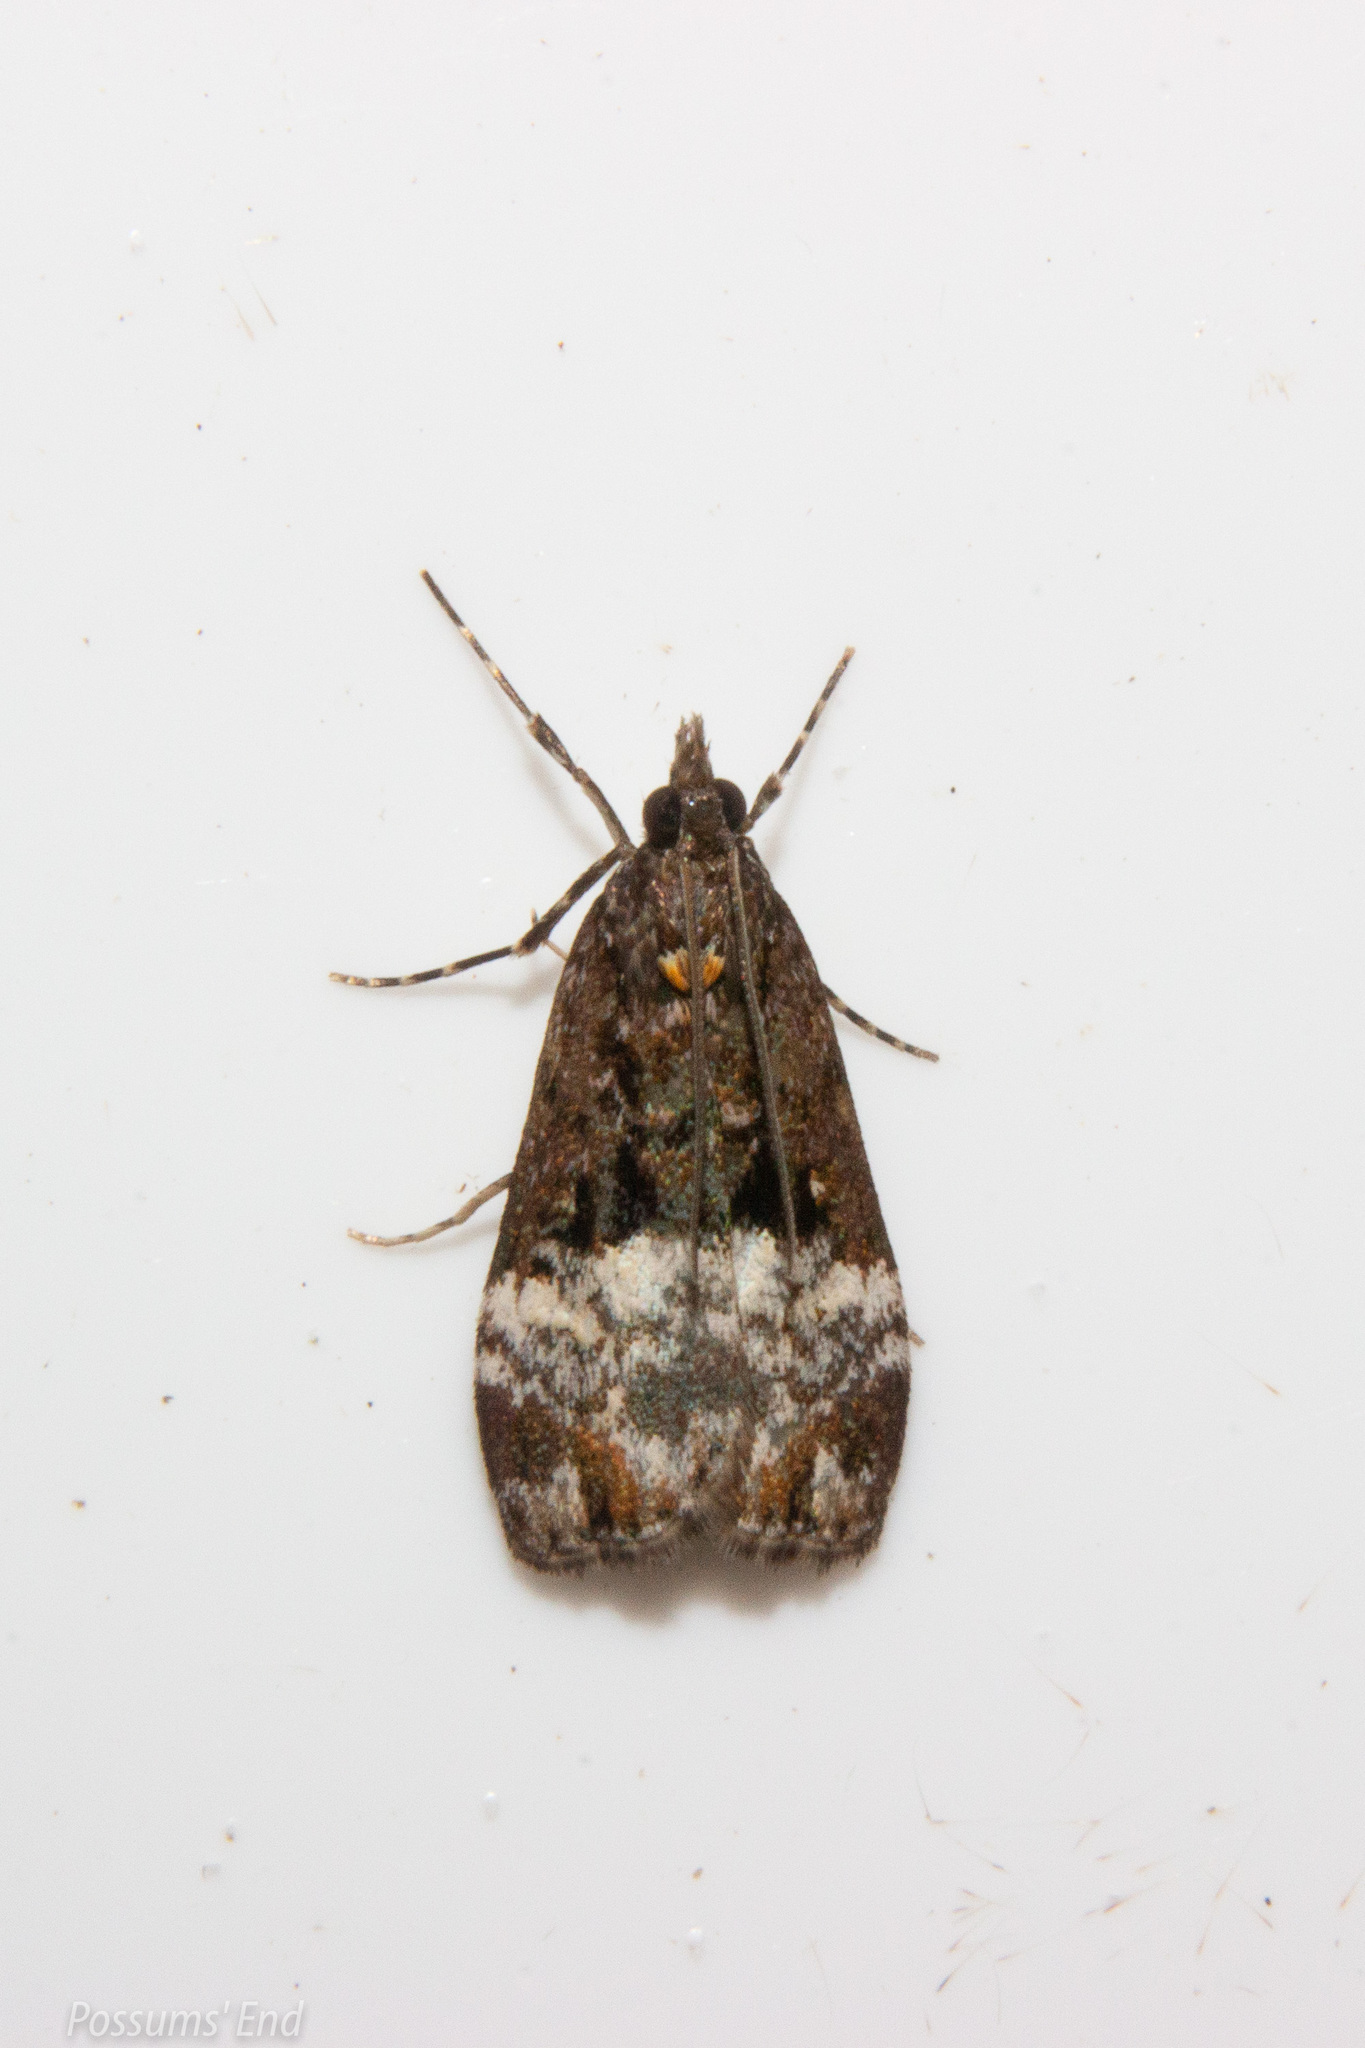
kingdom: Animalia
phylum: Arthropoda
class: Insecta
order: Lepidoptera
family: Crambidae
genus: Scoparia
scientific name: Scoparia minusculalis
